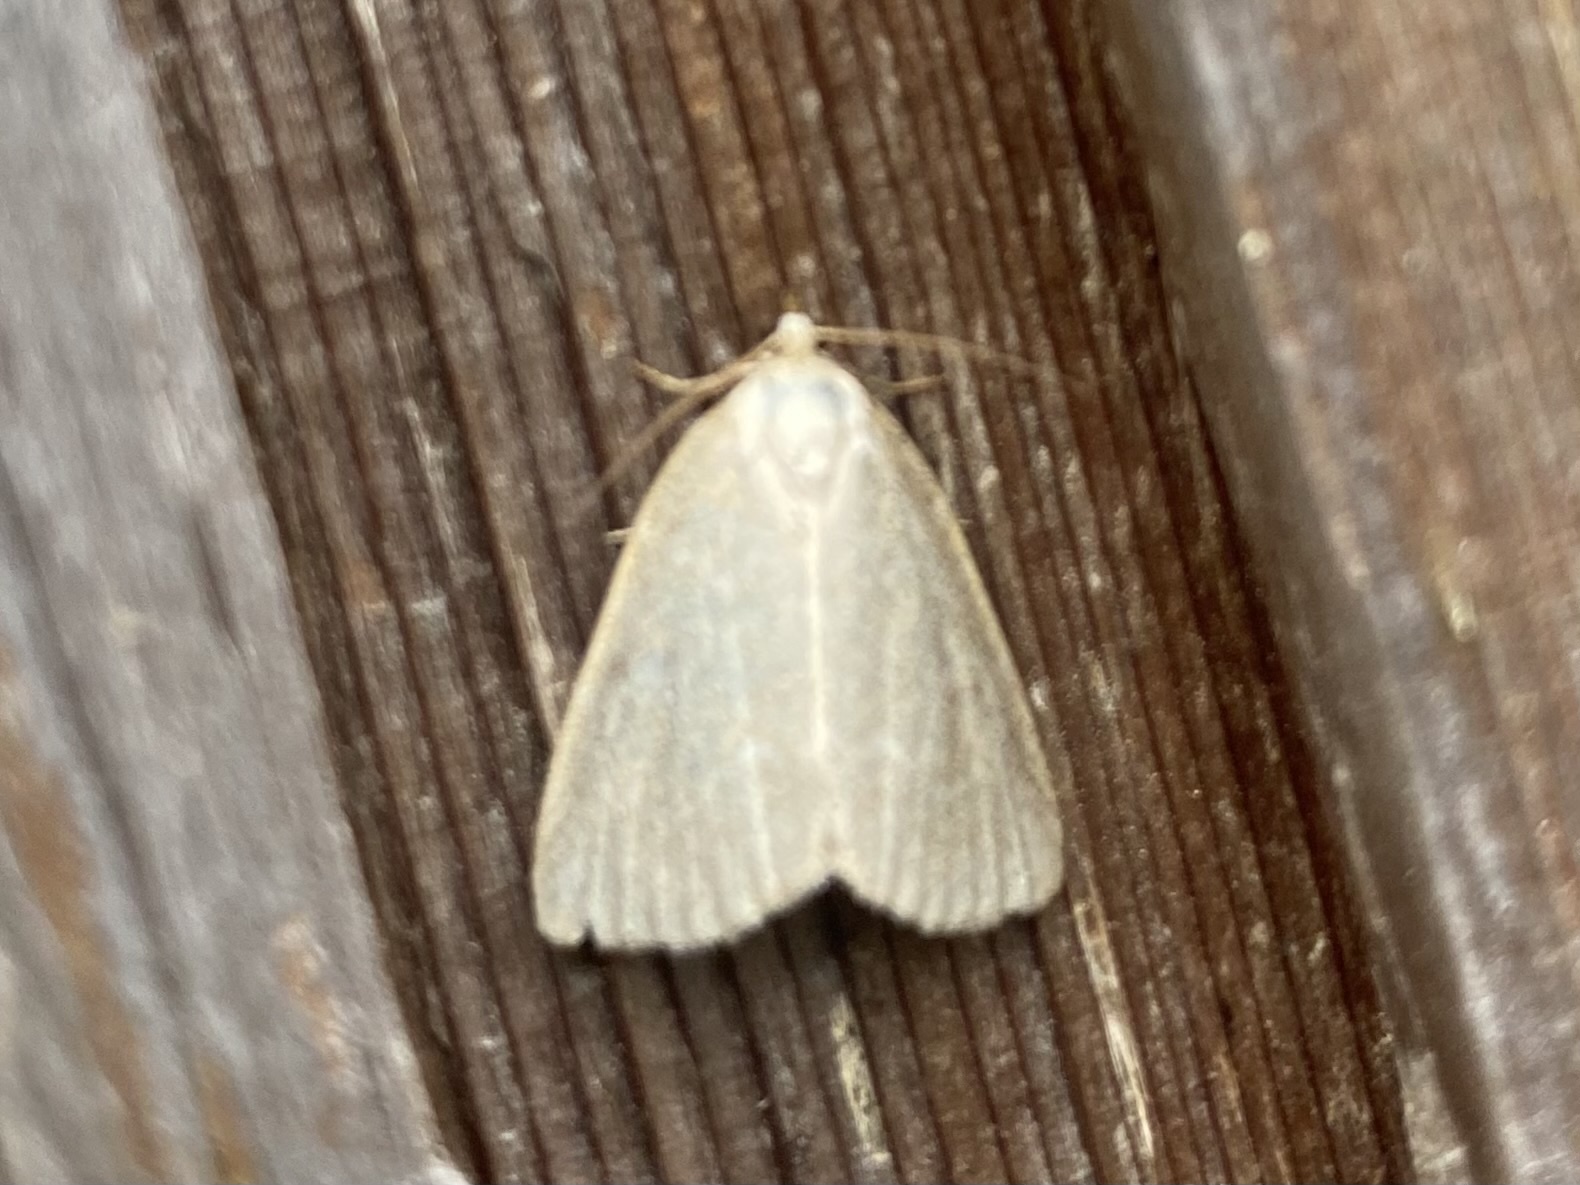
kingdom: Animalia
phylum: Arthropoda
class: Insecta
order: Lepidoptera
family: Noctuidae
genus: Protodeltote
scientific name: Protodeltote albidula
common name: Pale glyph
